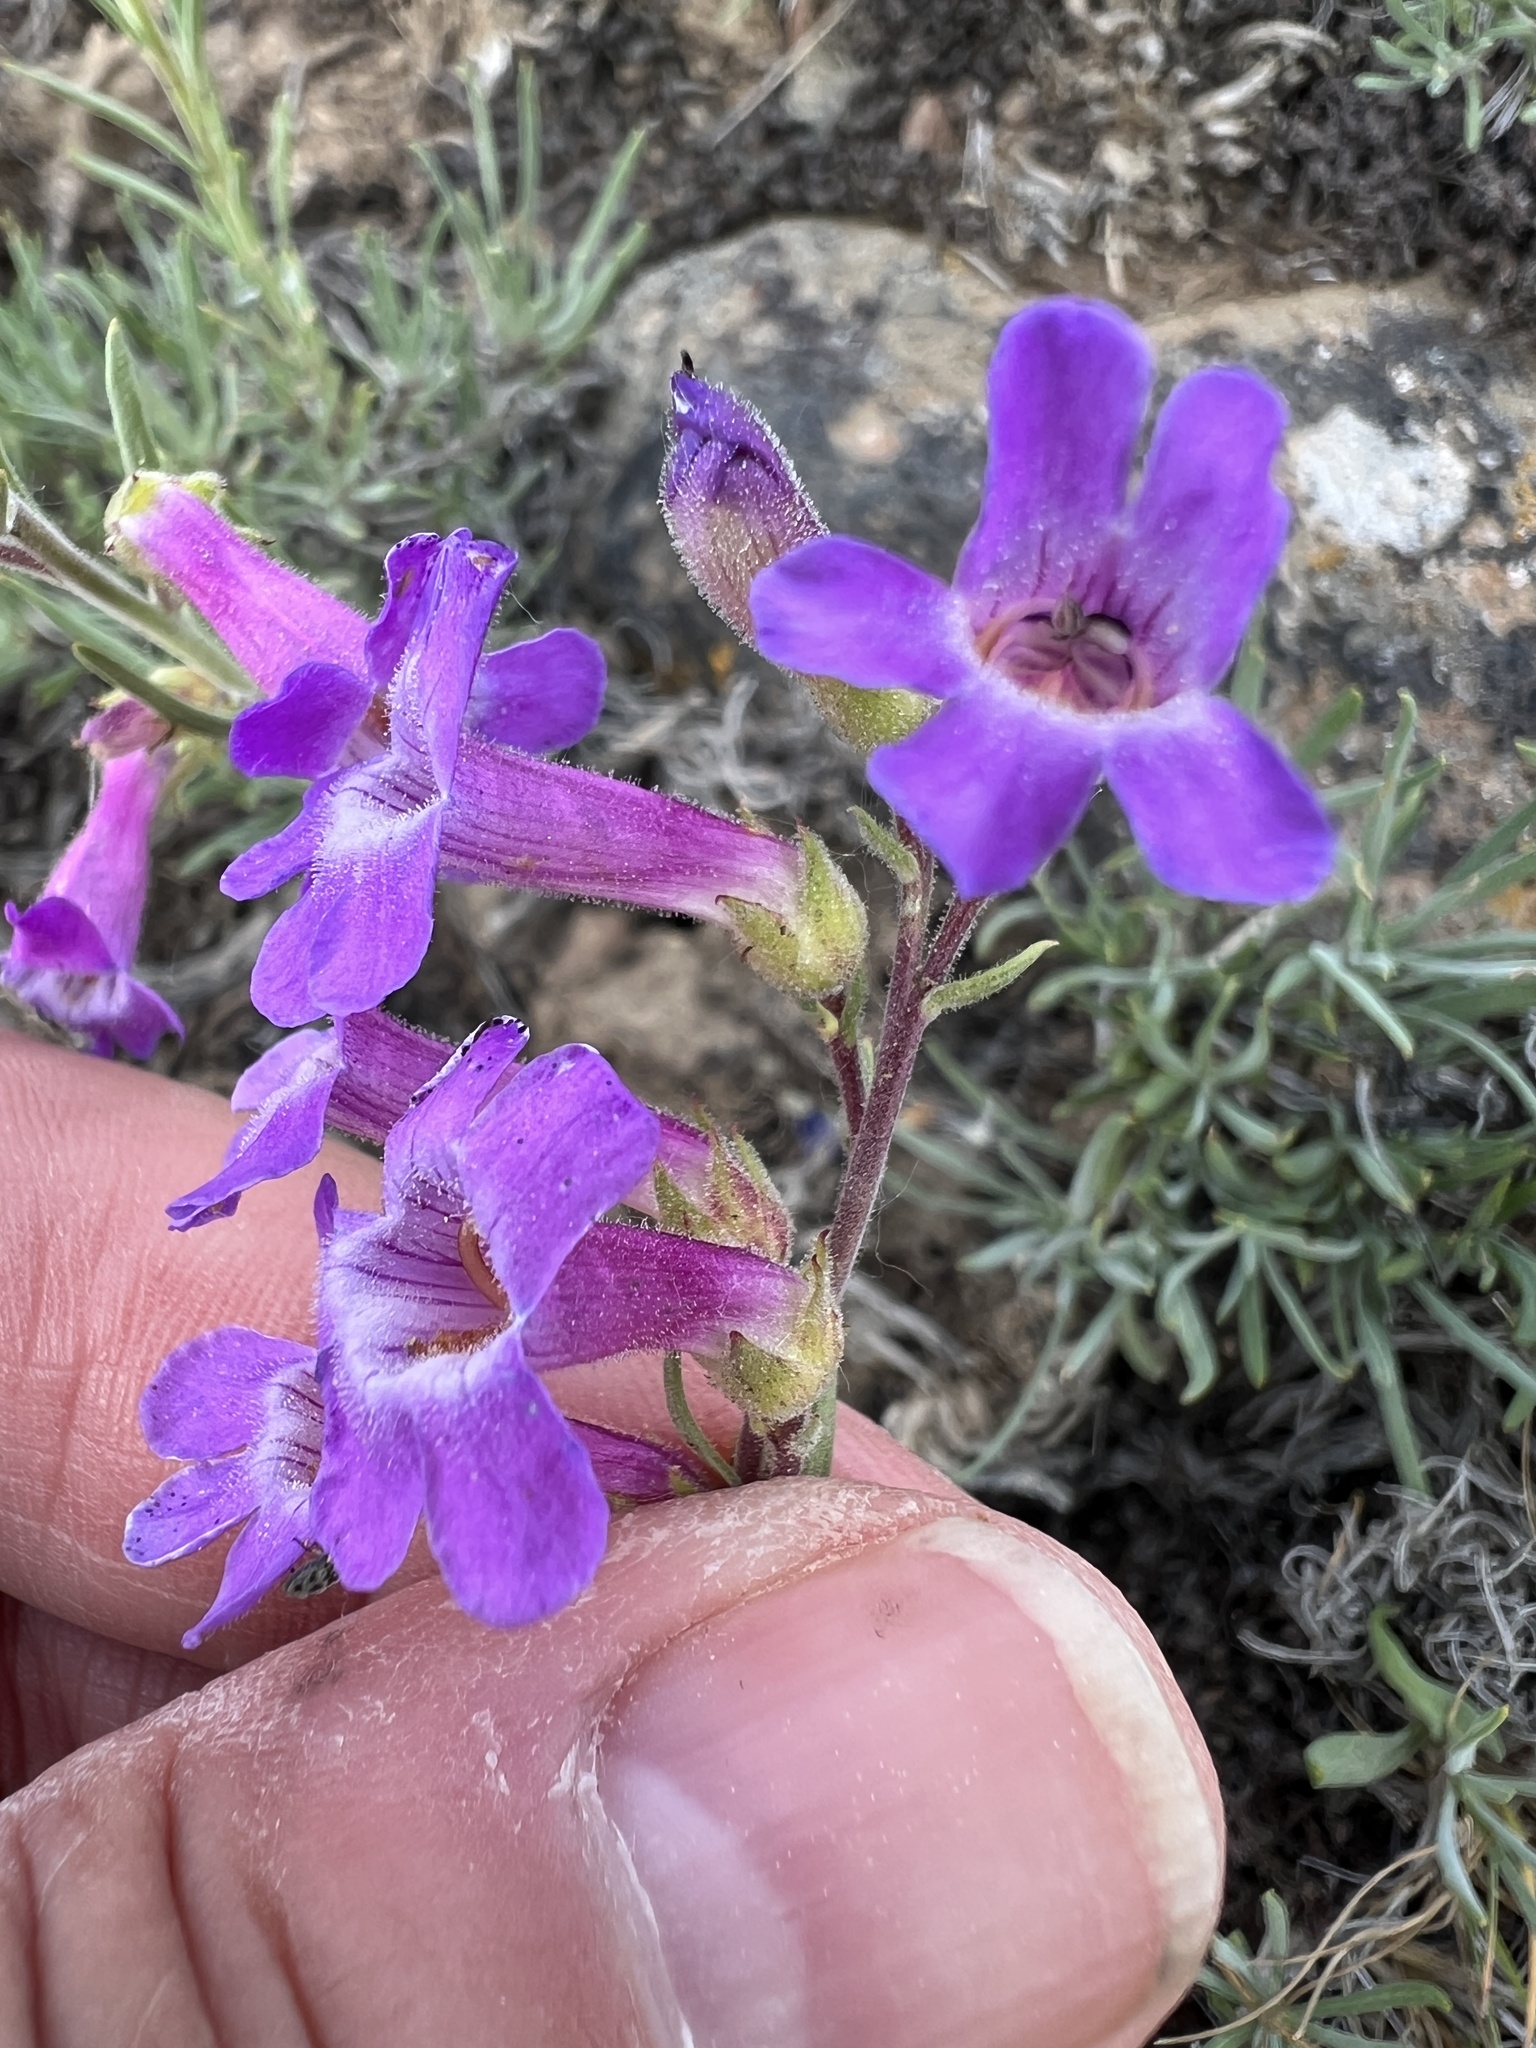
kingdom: Plantae
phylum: Tracheophyta
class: Magnoliopsida
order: Lamiales
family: Plantaginaceae
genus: Penstemon
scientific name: Penstemon gairdneri
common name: Gairdner's penstemon
